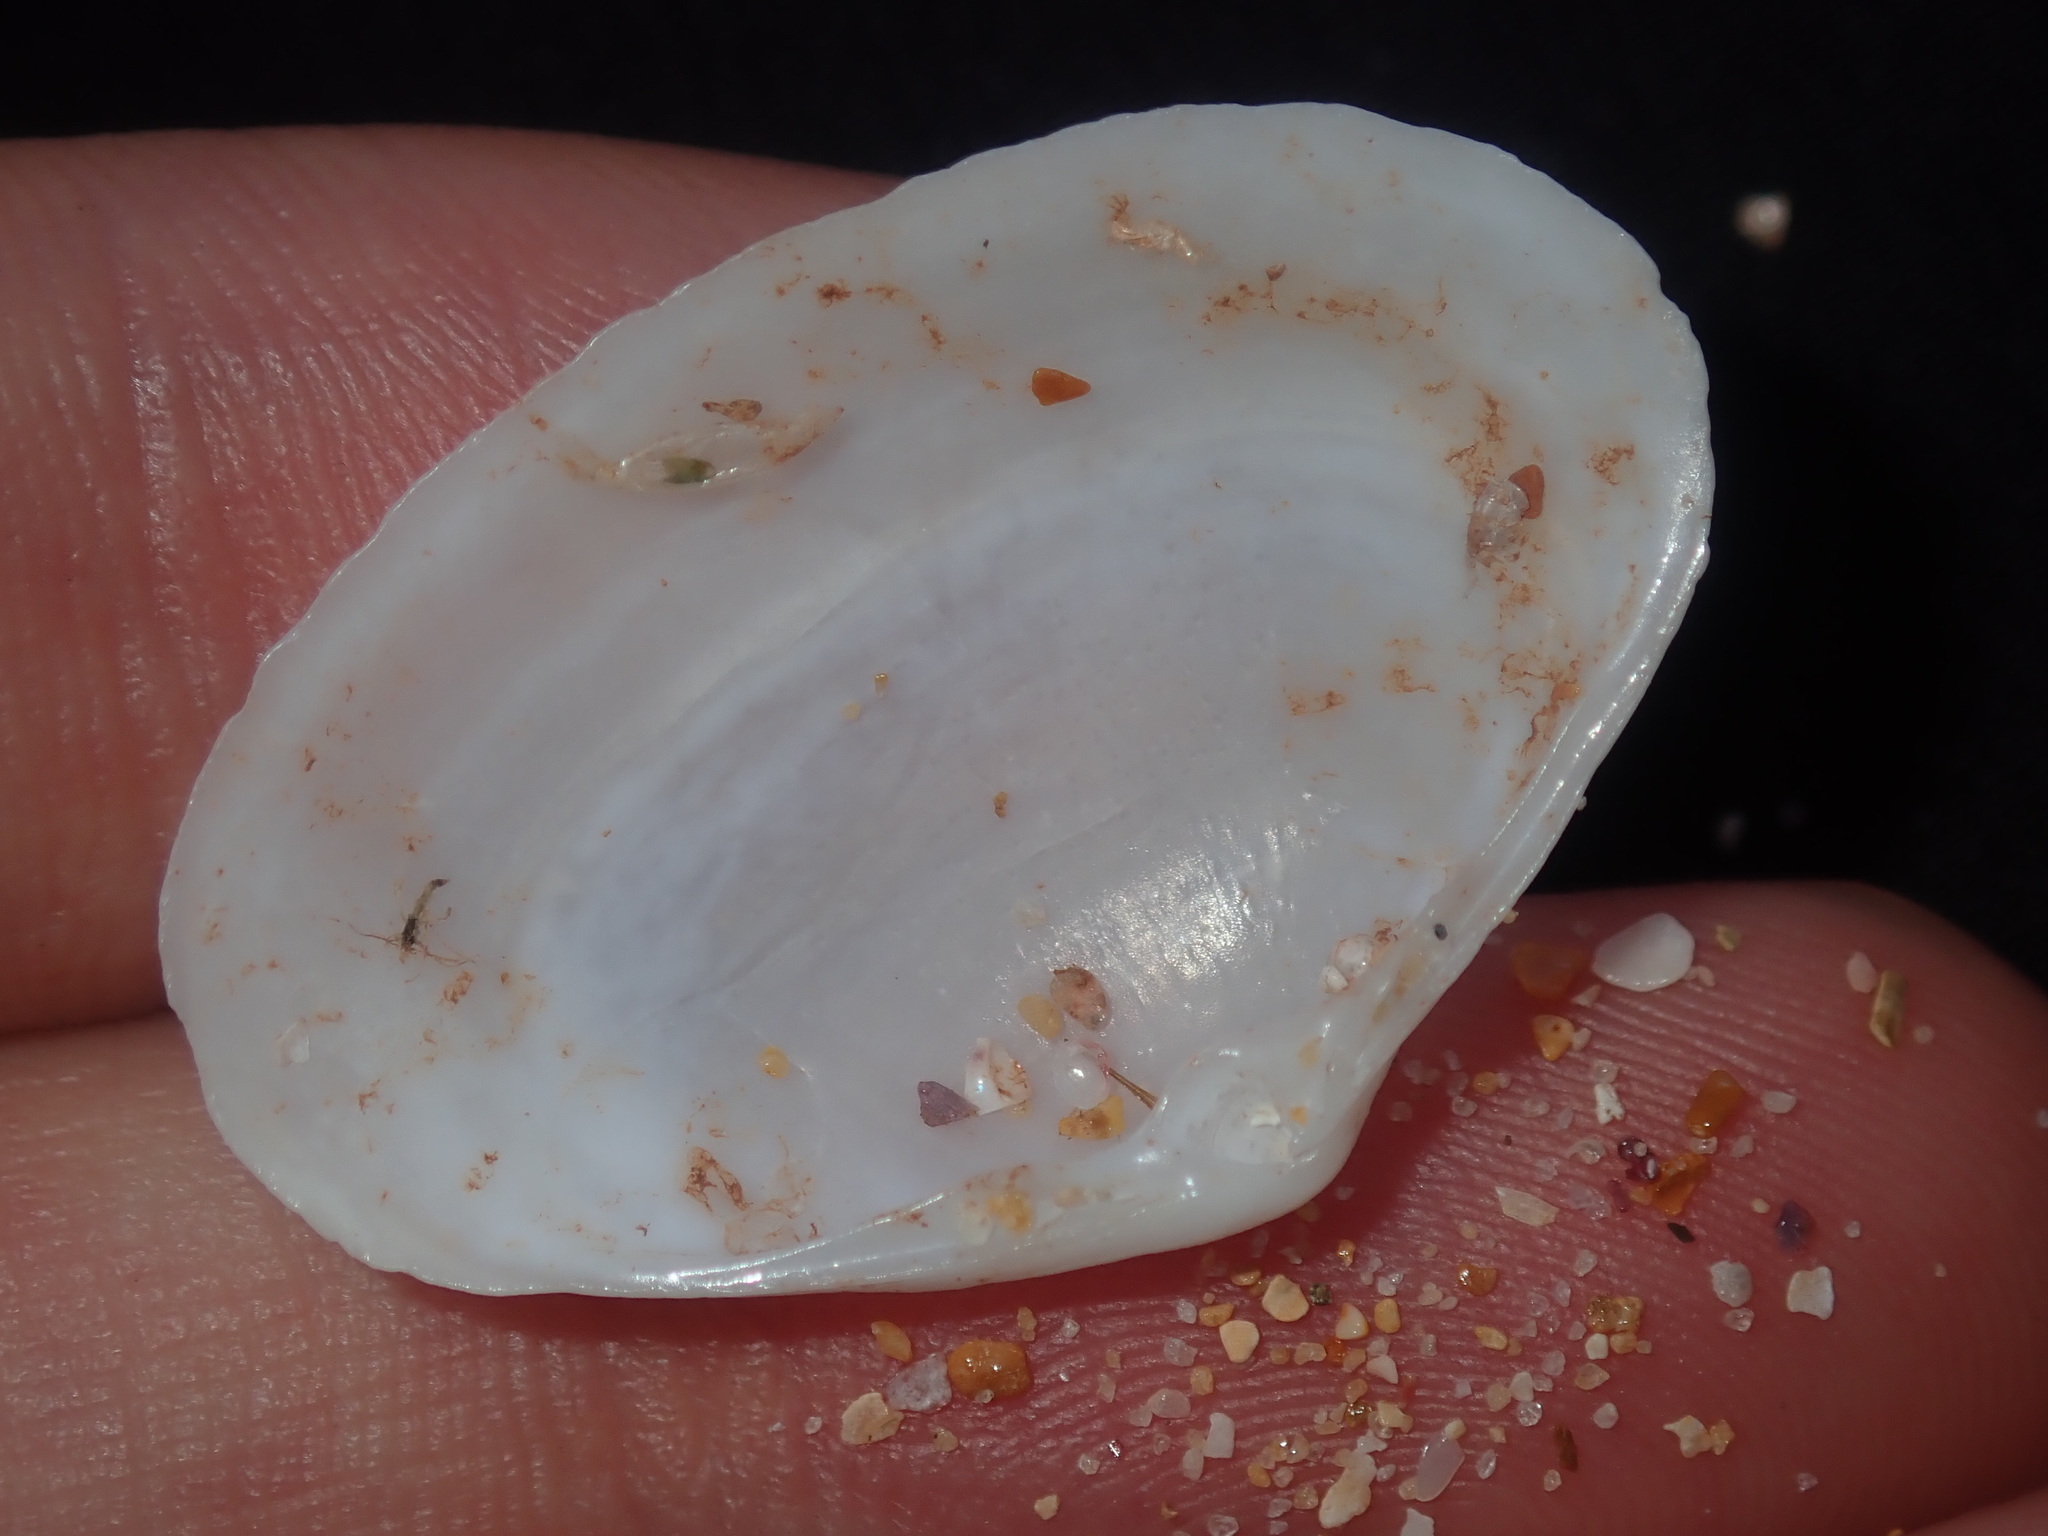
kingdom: Animalia
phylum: Mollusca
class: Bivalvia
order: Venerida
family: Mactridae
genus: Mactrotoma
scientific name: Mactrotoma antecedens
